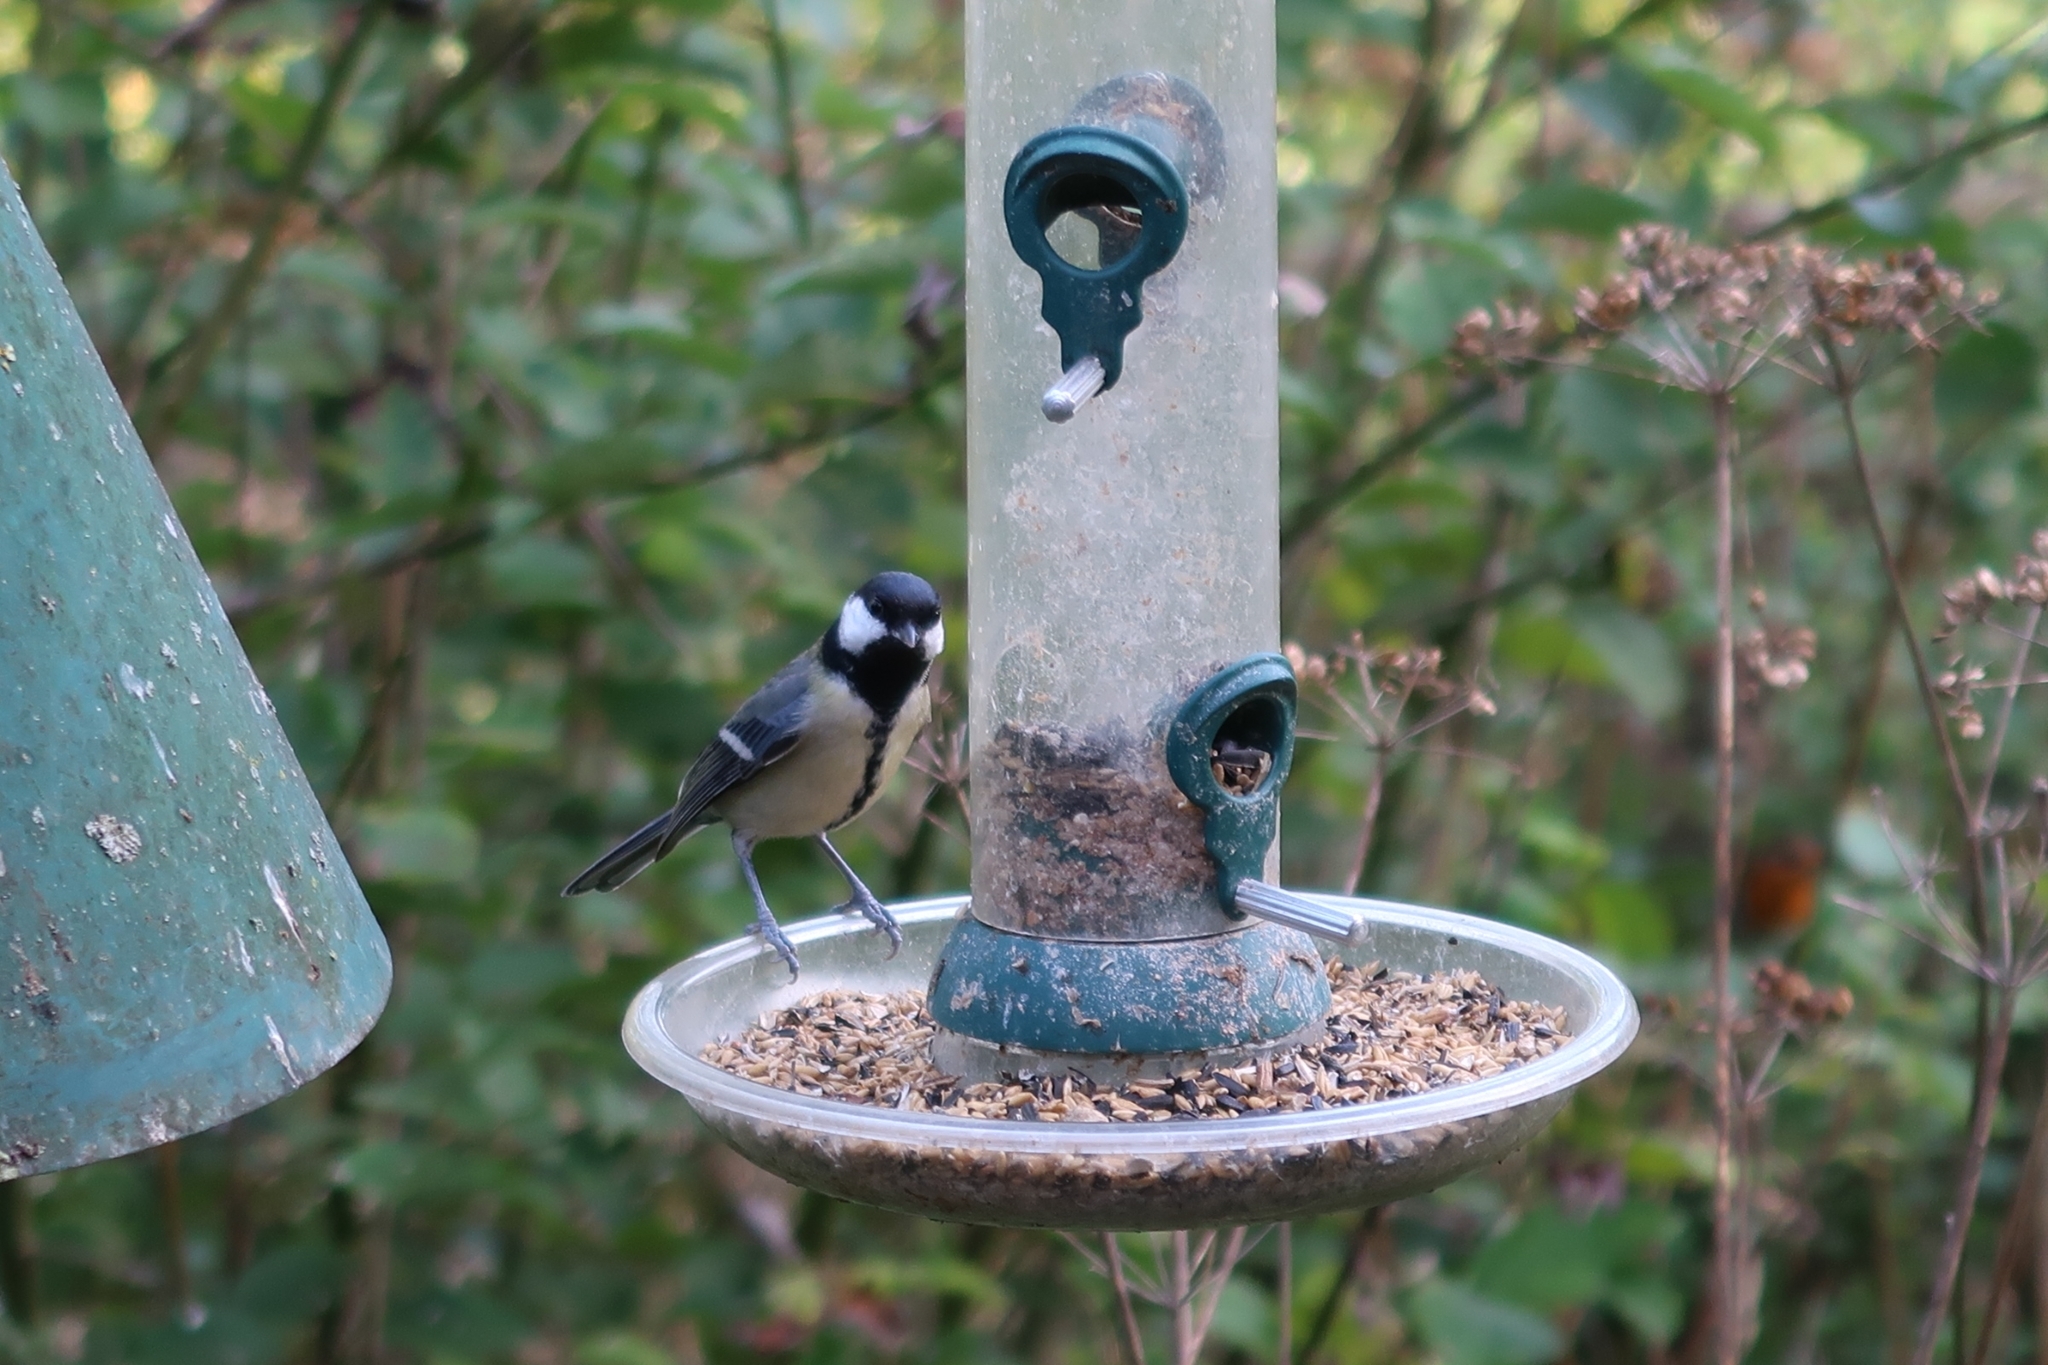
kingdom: Animalia
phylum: Chordata
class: Aves
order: Passeriformes
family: Paridae
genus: Parus
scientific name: Parus major
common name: Great tit
